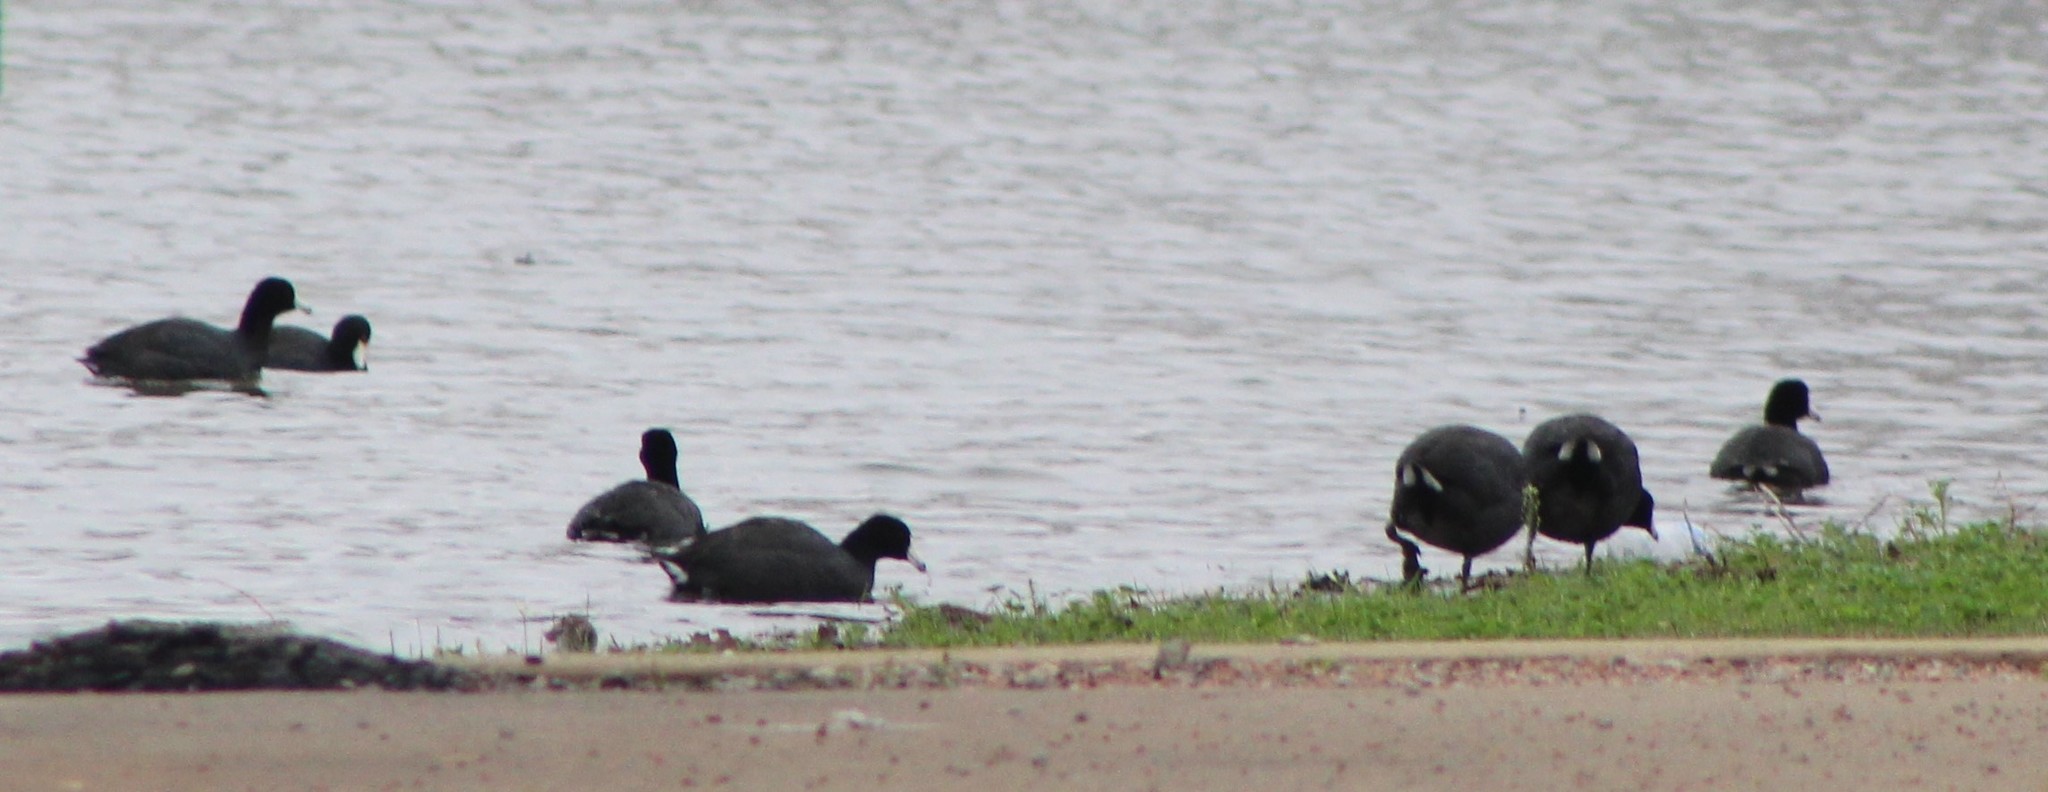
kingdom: Animalia
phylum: Chordata
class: Aves
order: Gruiformes
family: Rallidae
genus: Fulica
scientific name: Fulica americana
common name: American coot
